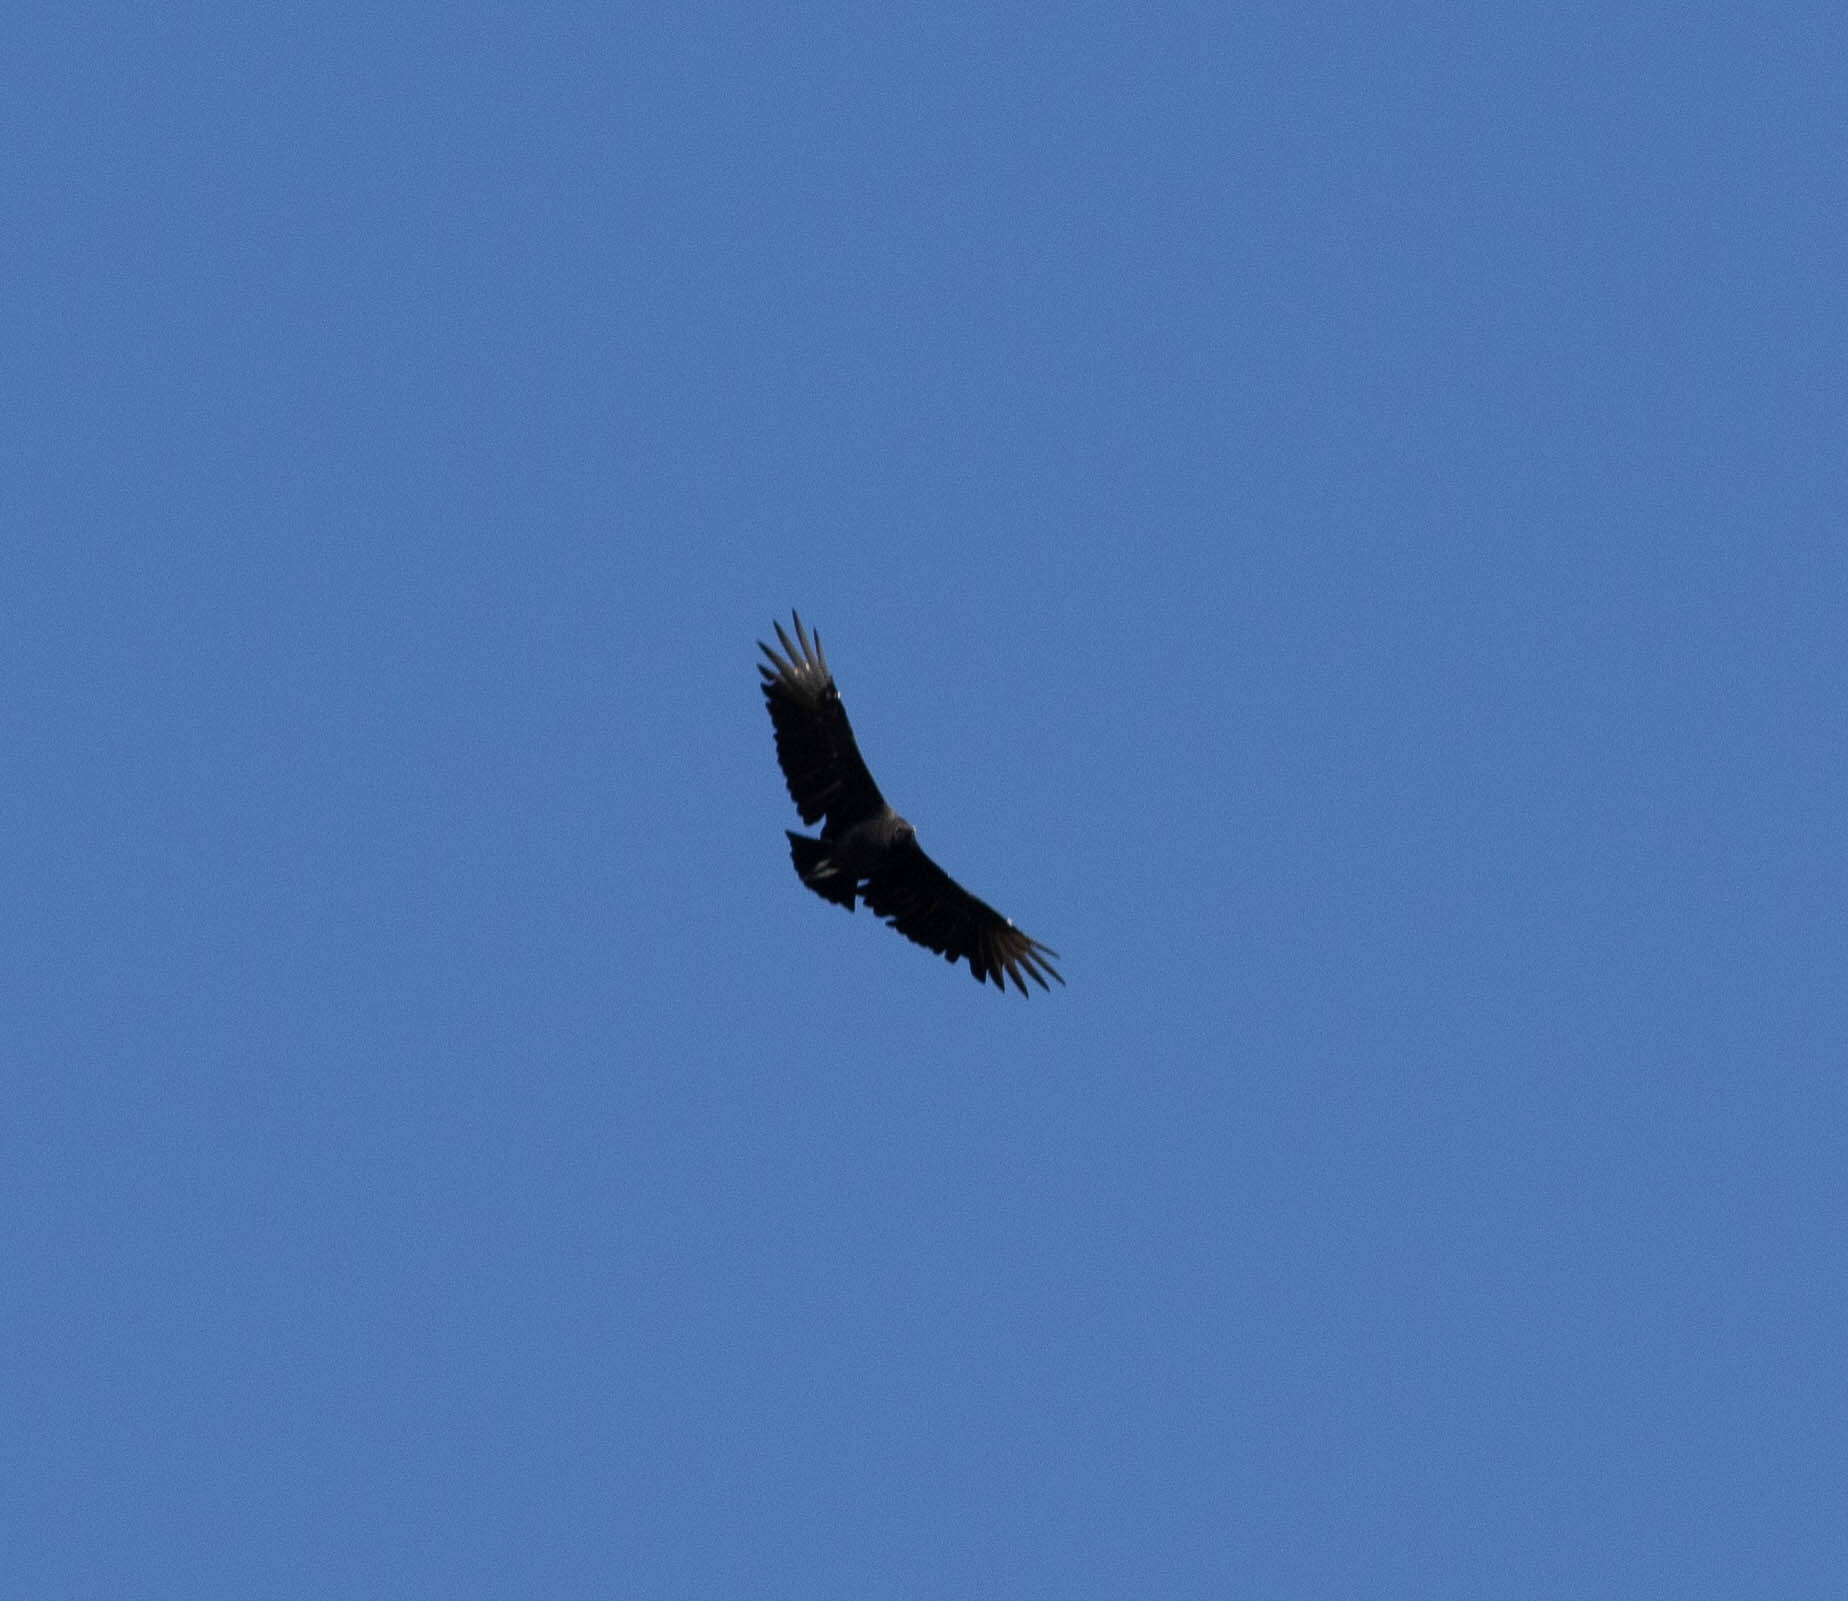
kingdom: Animalia
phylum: Chordata
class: Aves
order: Accipitriformes
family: Cathartidae
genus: Coragyps
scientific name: Coragyps atratus
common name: Black vulture
